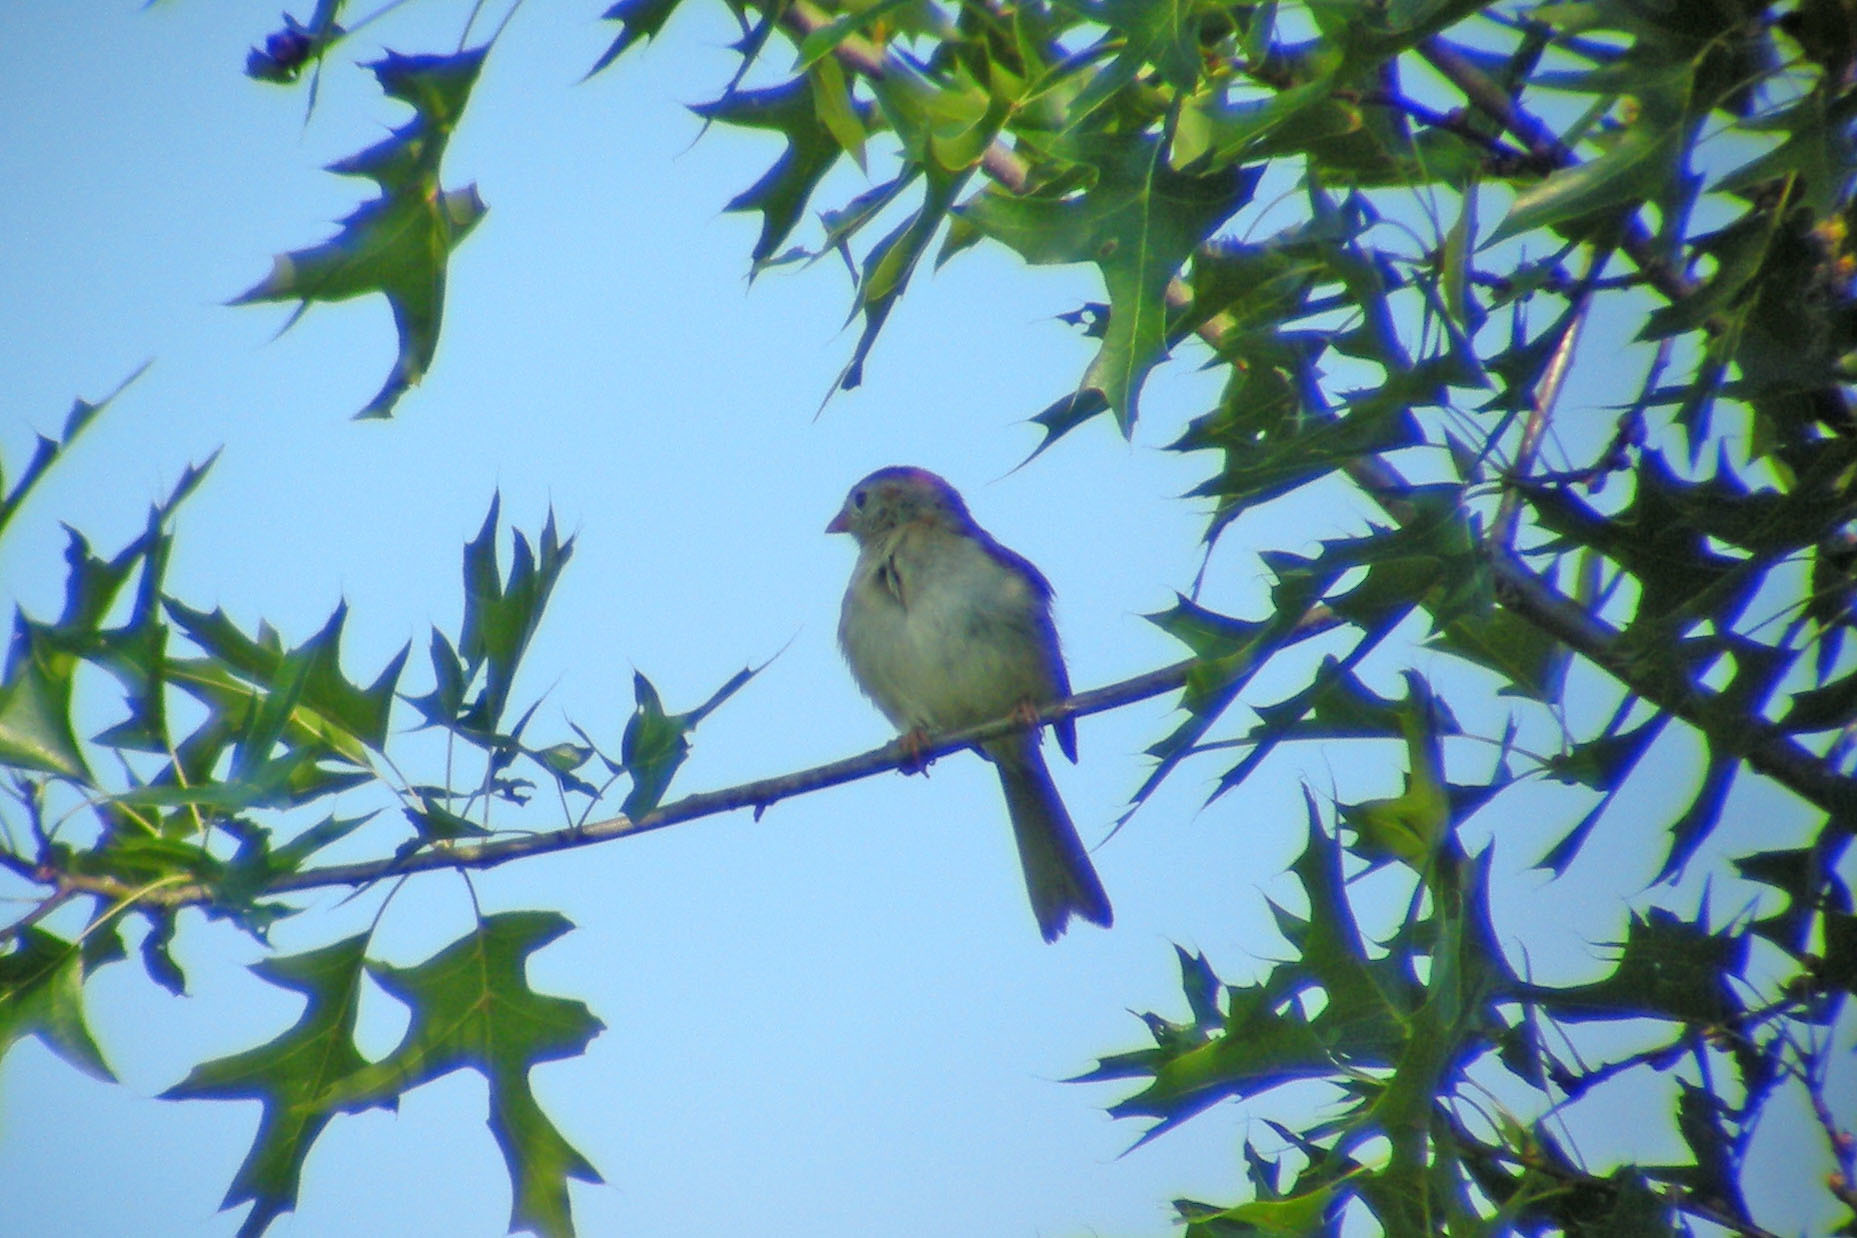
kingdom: Animalia
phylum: Chordata
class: Aves
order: Passeriformes
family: Passerellidae
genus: Spizella
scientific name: Spizella pusilla
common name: Field sparrow
